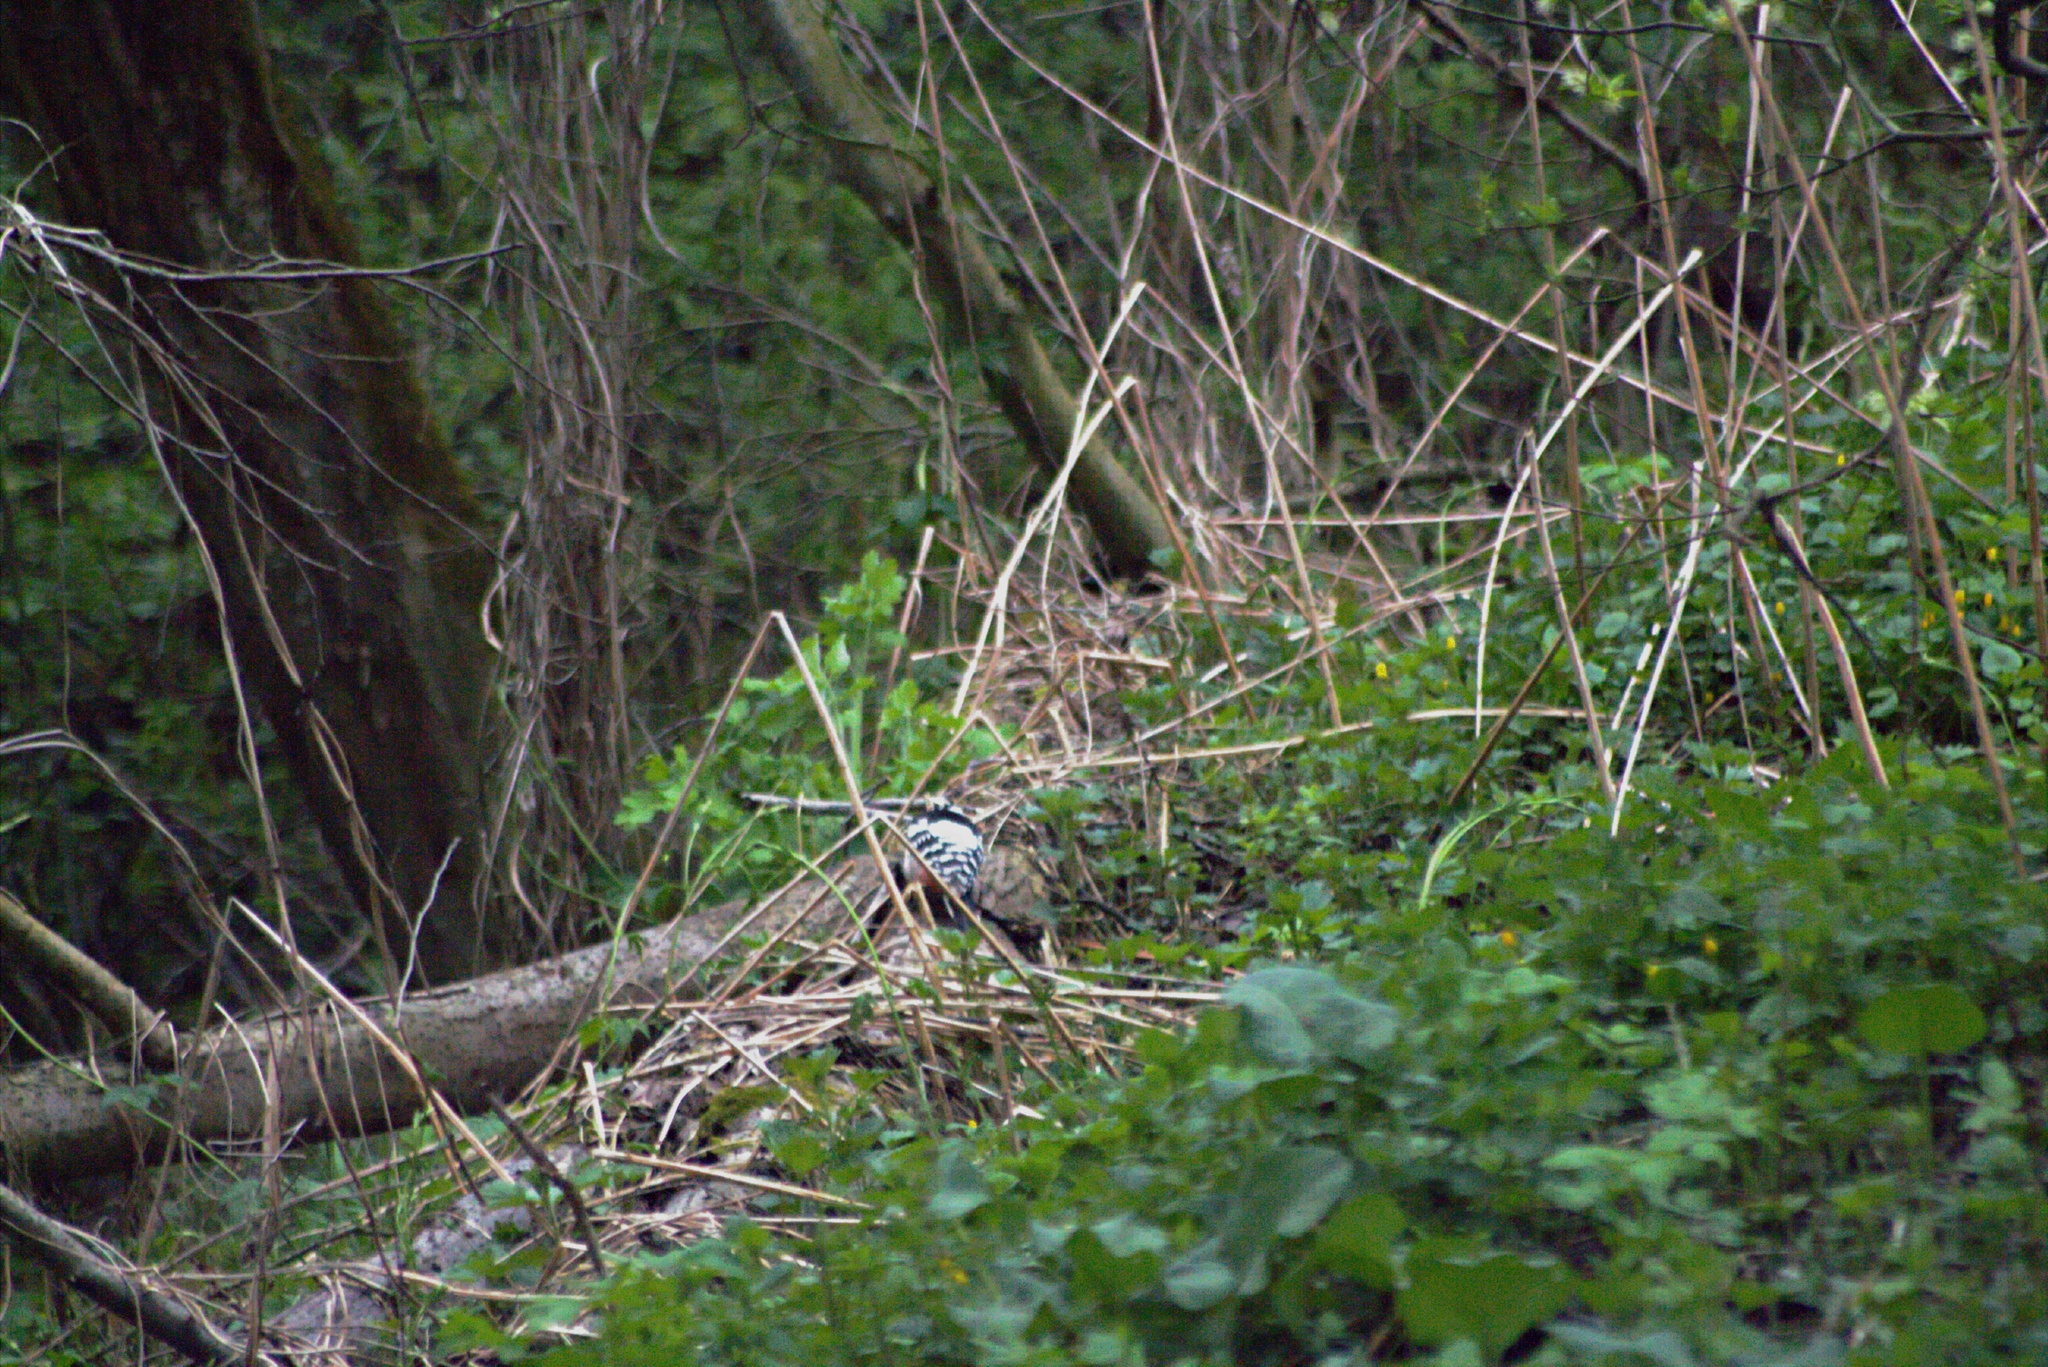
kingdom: Animalia
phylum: Chordata
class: Aves
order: Piciformes
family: Picidae
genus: Dendrocopos
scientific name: Dendrocopos leucotos
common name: White-backed woodpecker
